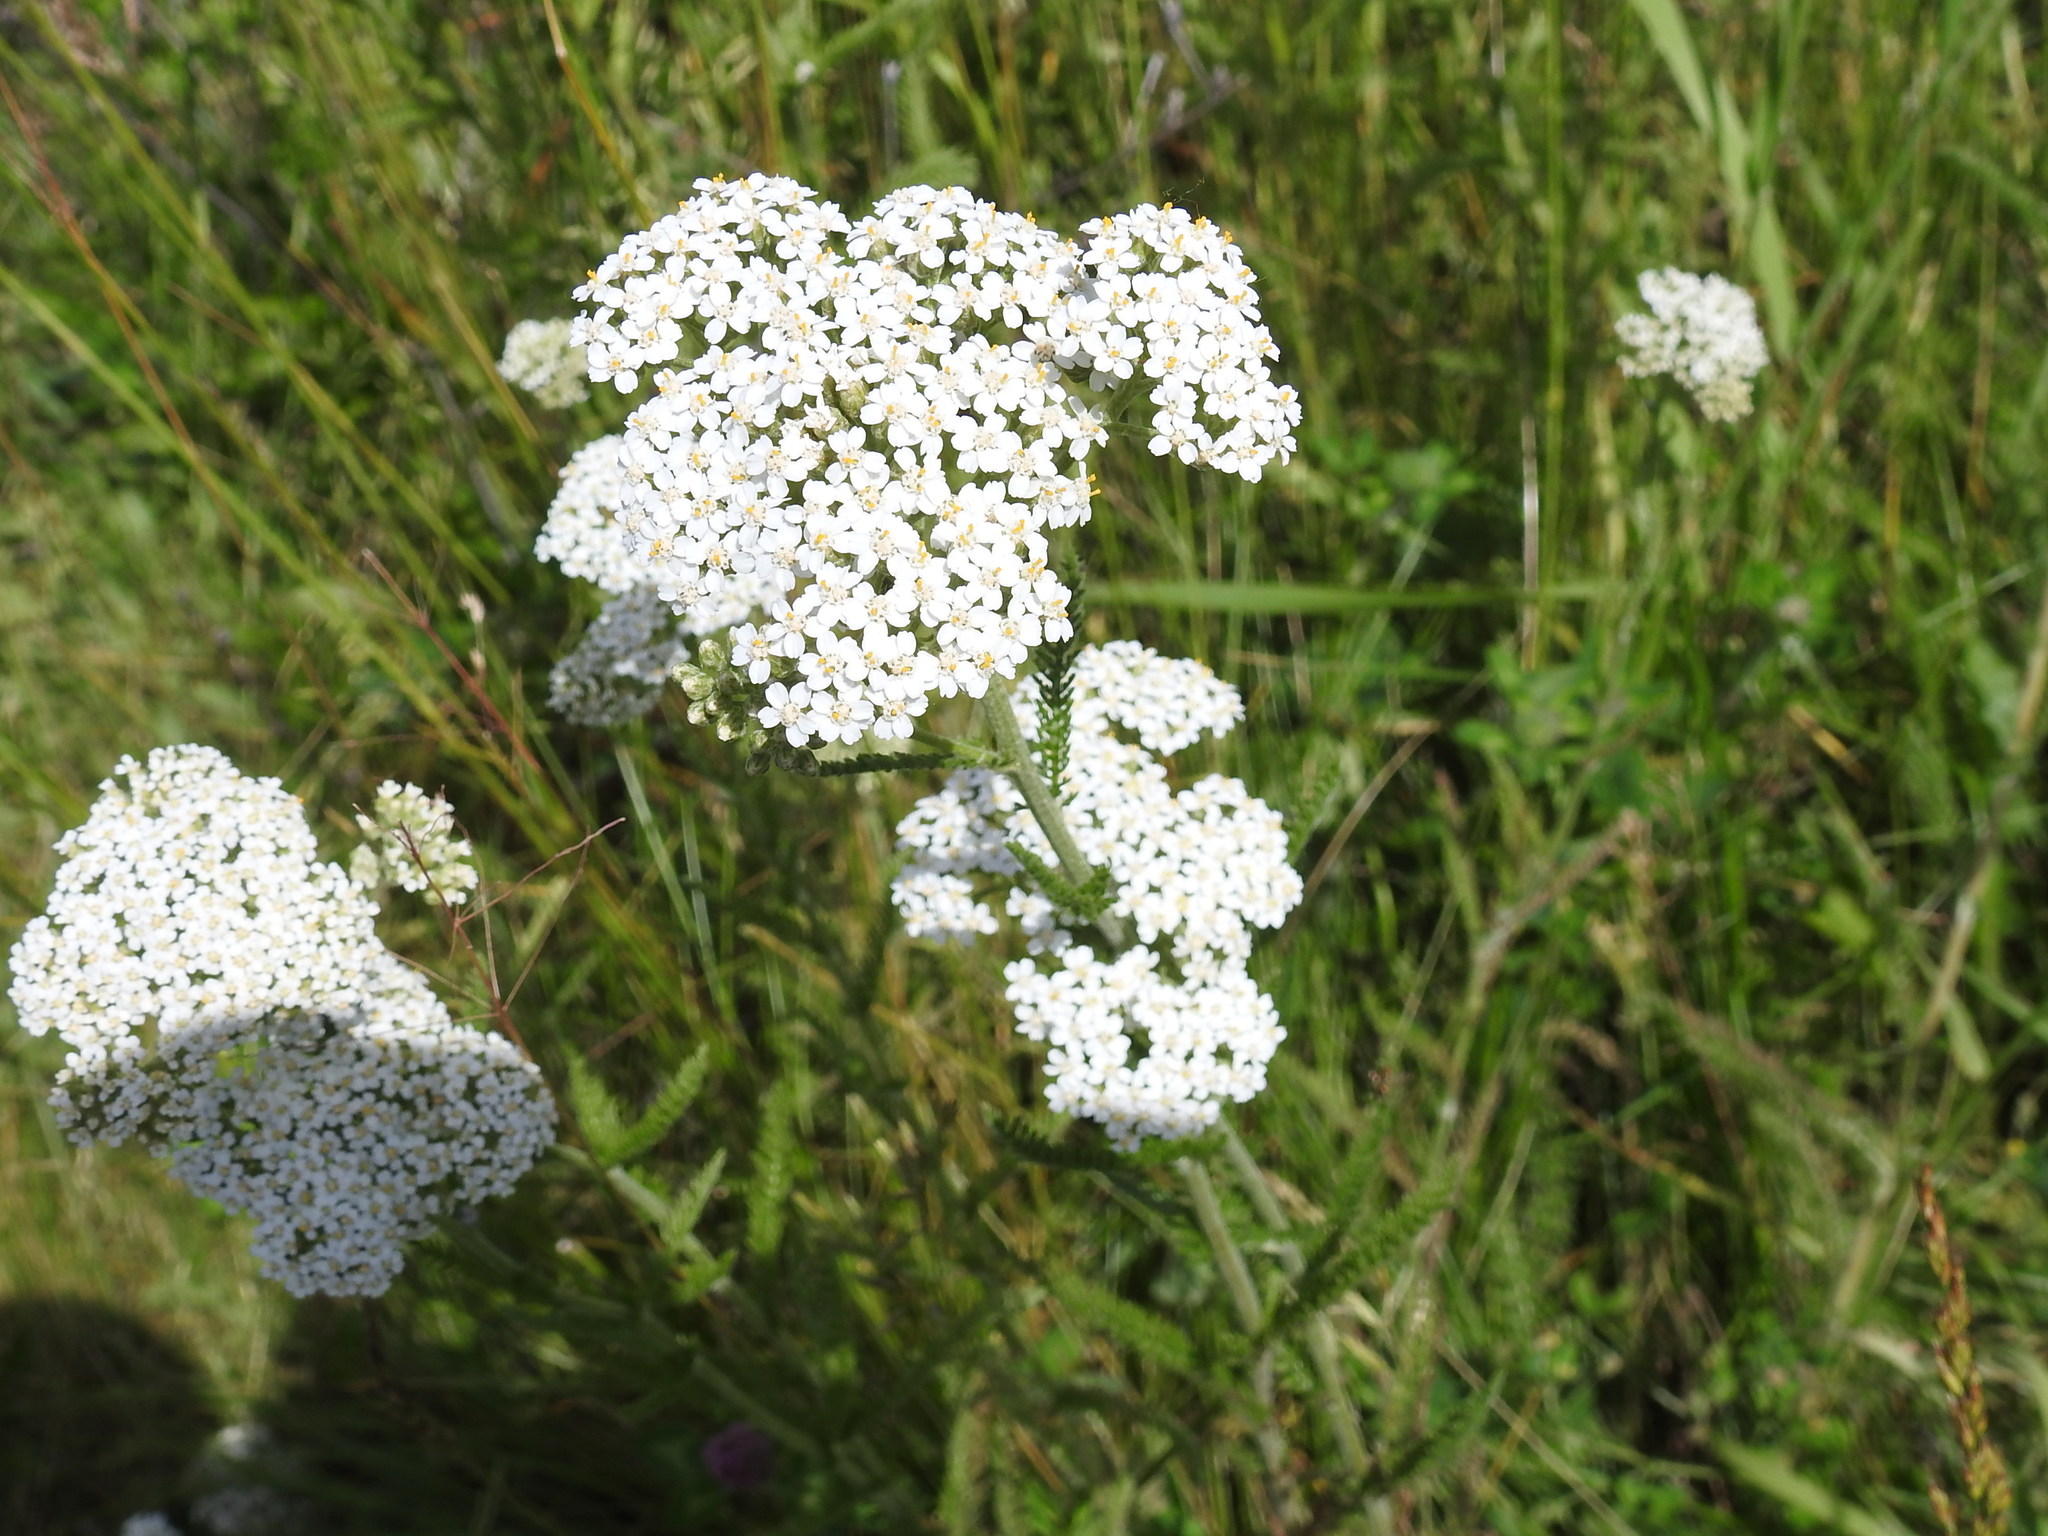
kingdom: Plantae
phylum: Tracheophyta
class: Magnoliopsida
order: Asterales
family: Asteraceae
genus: Achillea
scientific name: Achillea millefolium
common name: Yarrow
